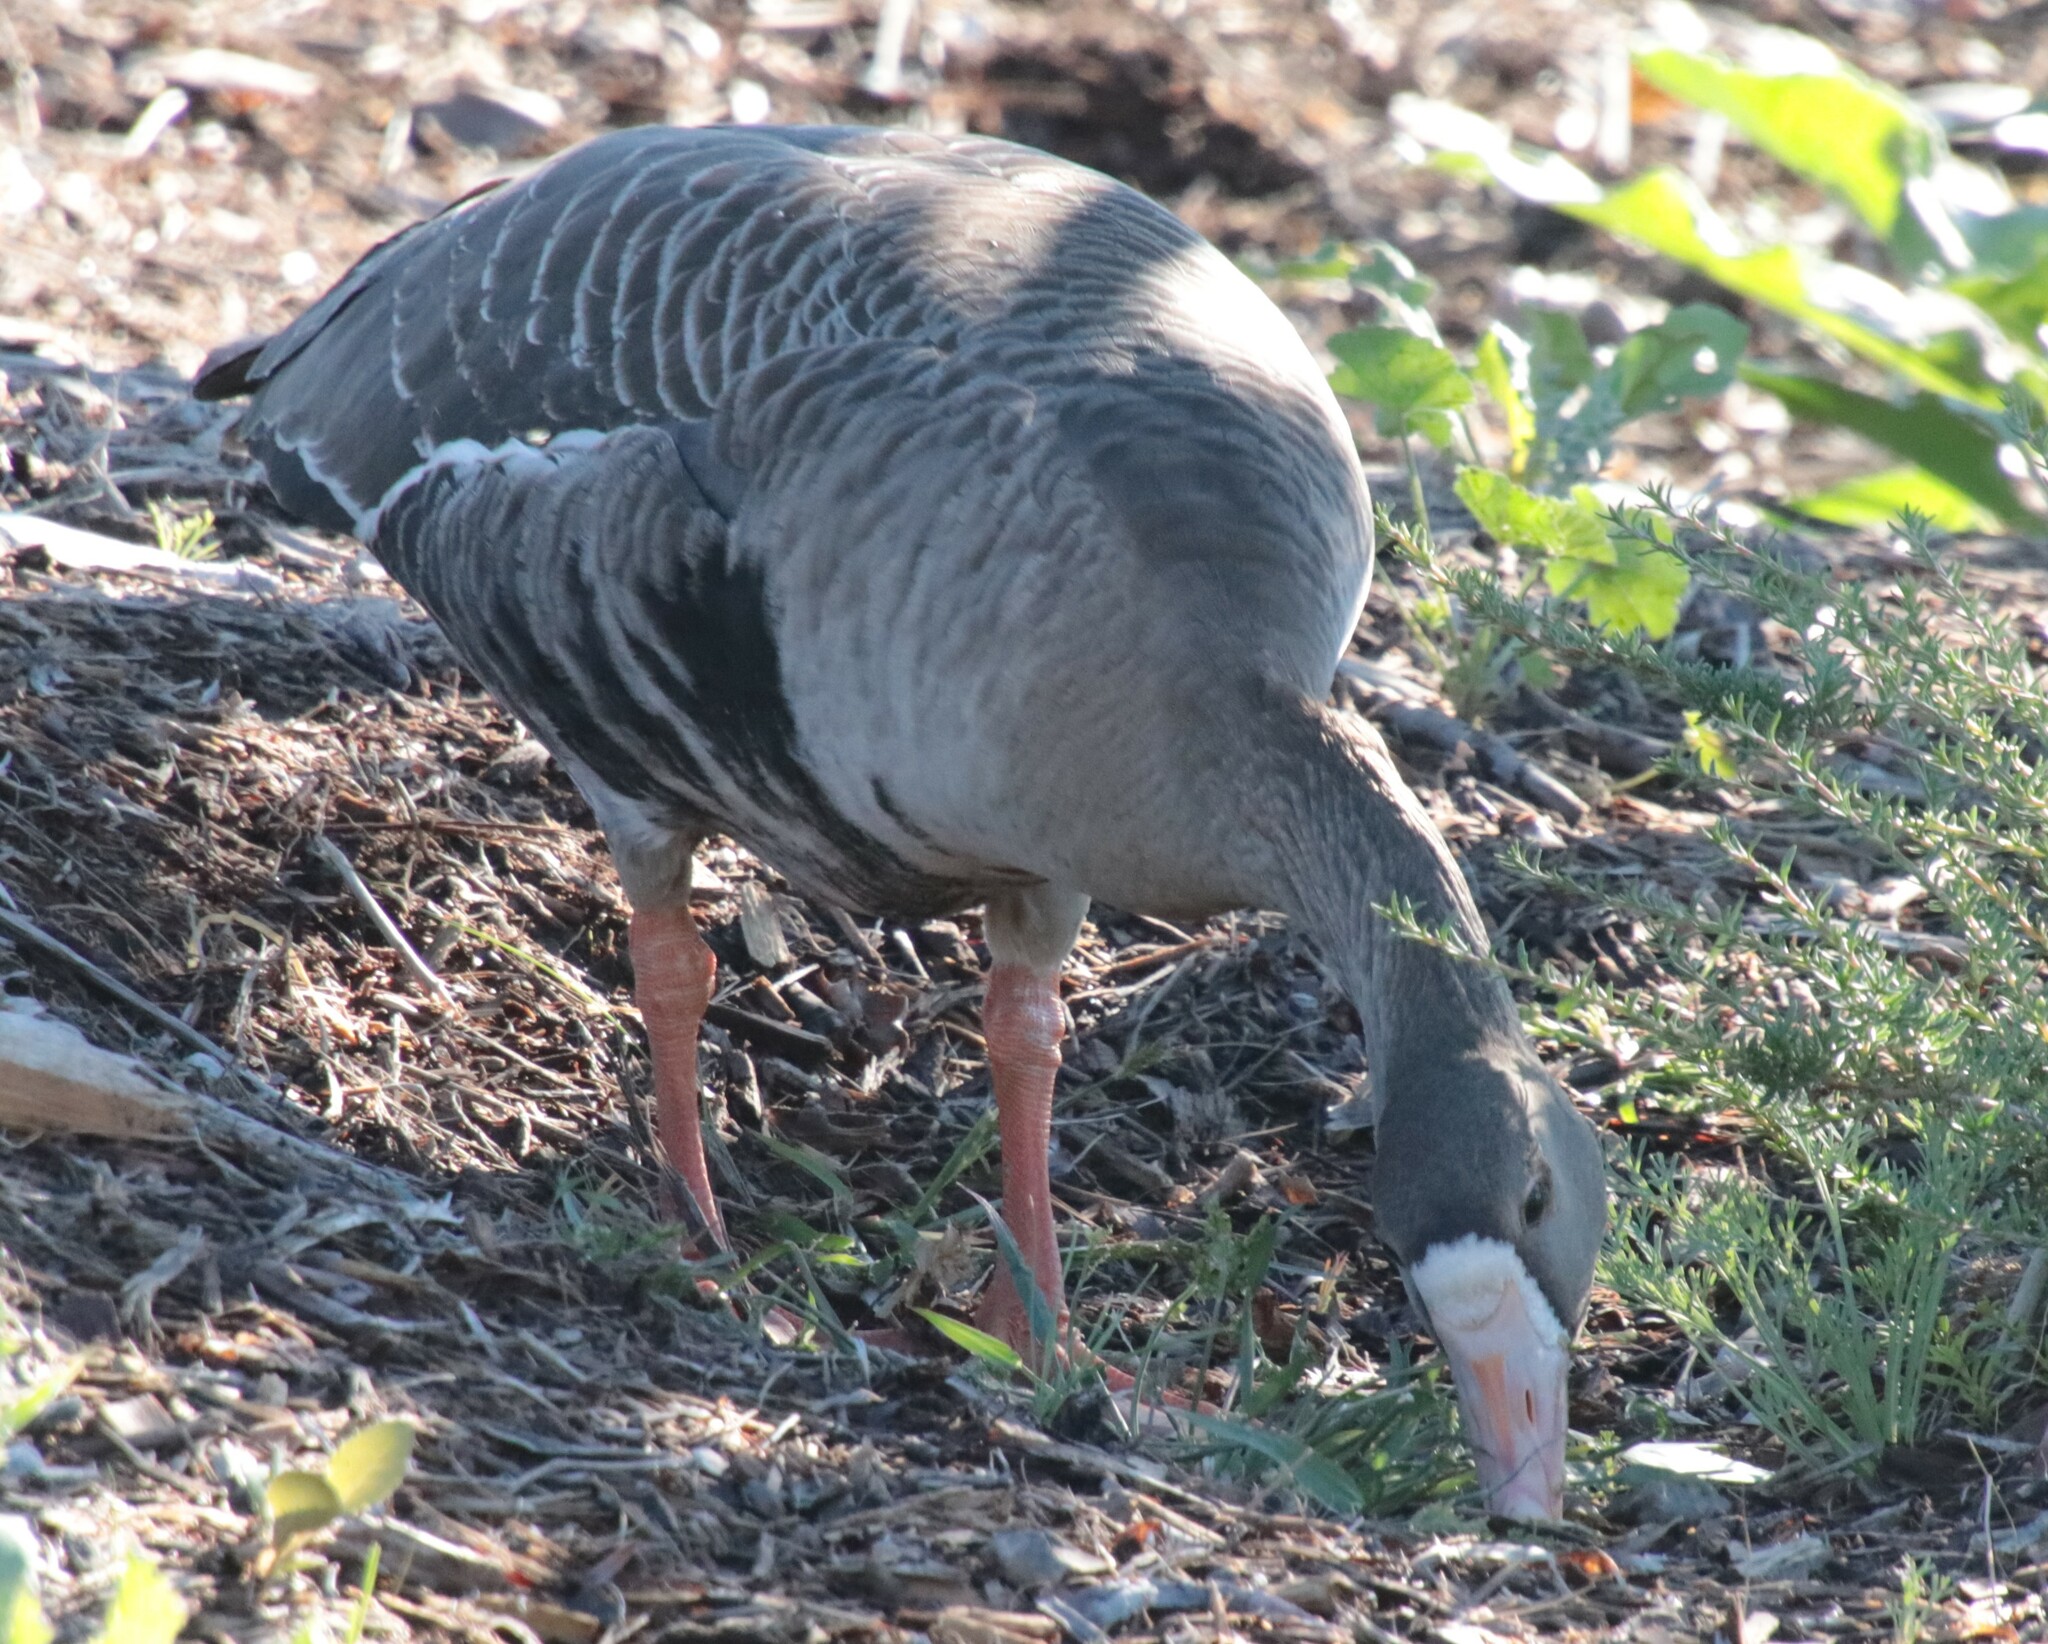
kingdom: Animalia
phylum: Chordata
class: Aves
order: Anseriformes
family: Anatidae
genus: Anser
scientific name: Anser albifrons
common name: Greater white-fronted goose
